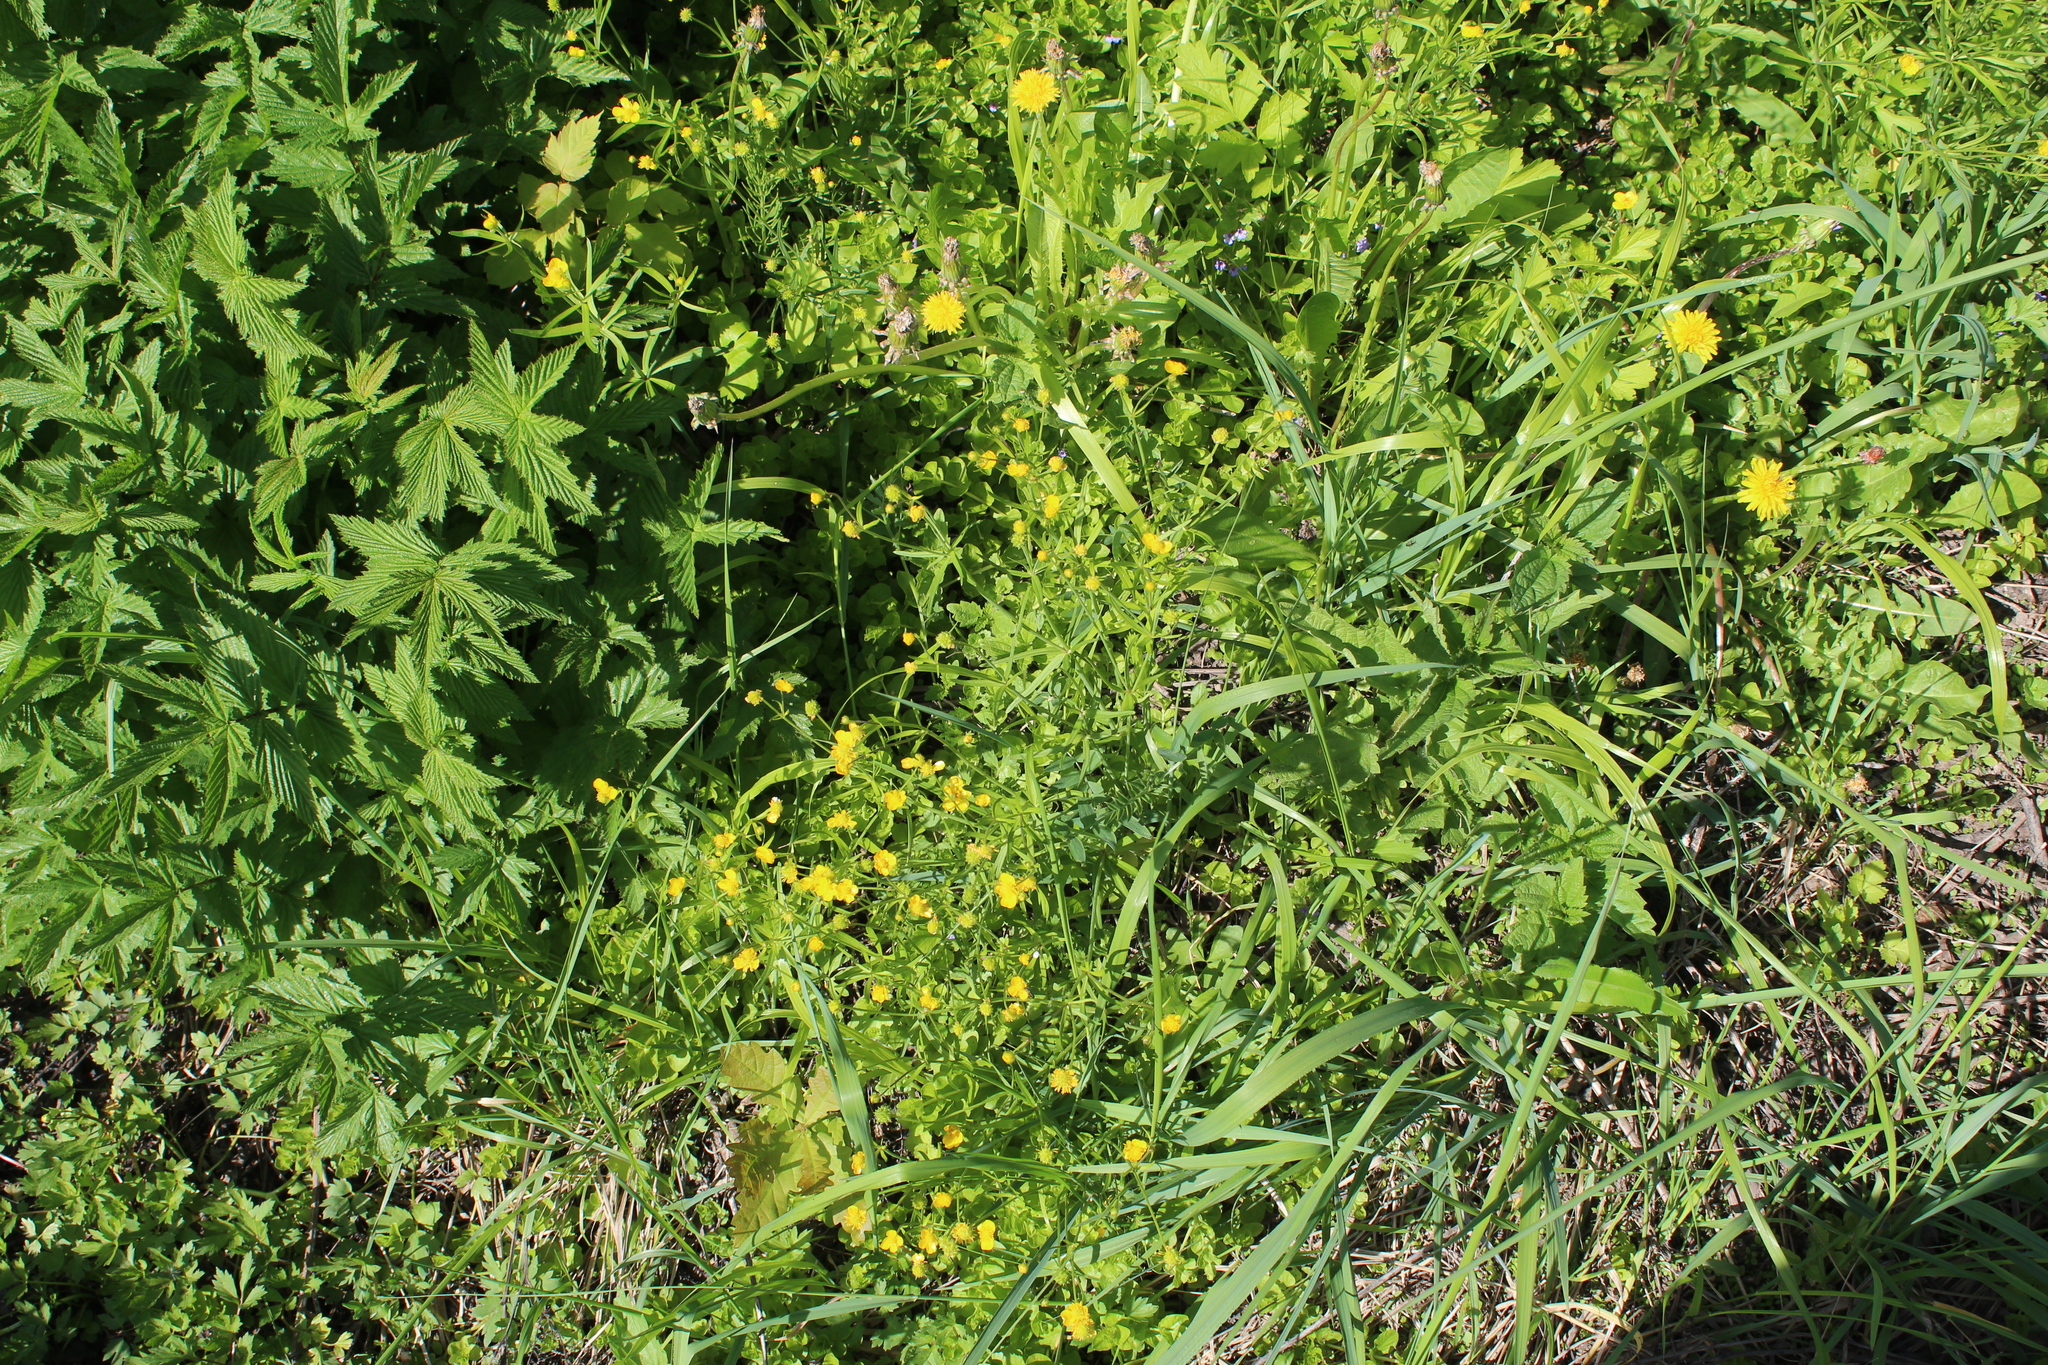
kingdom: Plantae
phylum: Tracheophyta
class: Magnoliopsida
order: Ranunculales
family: Ranunculaceae
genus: Ranunculus
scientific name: Ranunculus auricomus
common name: Goldilocks buttercup
